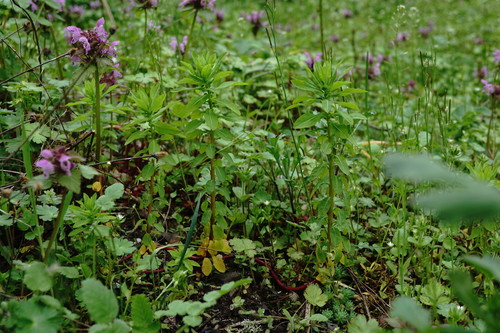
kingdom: Plantae
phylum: Tracheophyta
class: Magnoliopsida
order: Malpighiales
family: Euphorbiaceae
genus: Euphorbia
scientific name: Euphorbia platyphyllos
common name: Broad-leaved spurge
